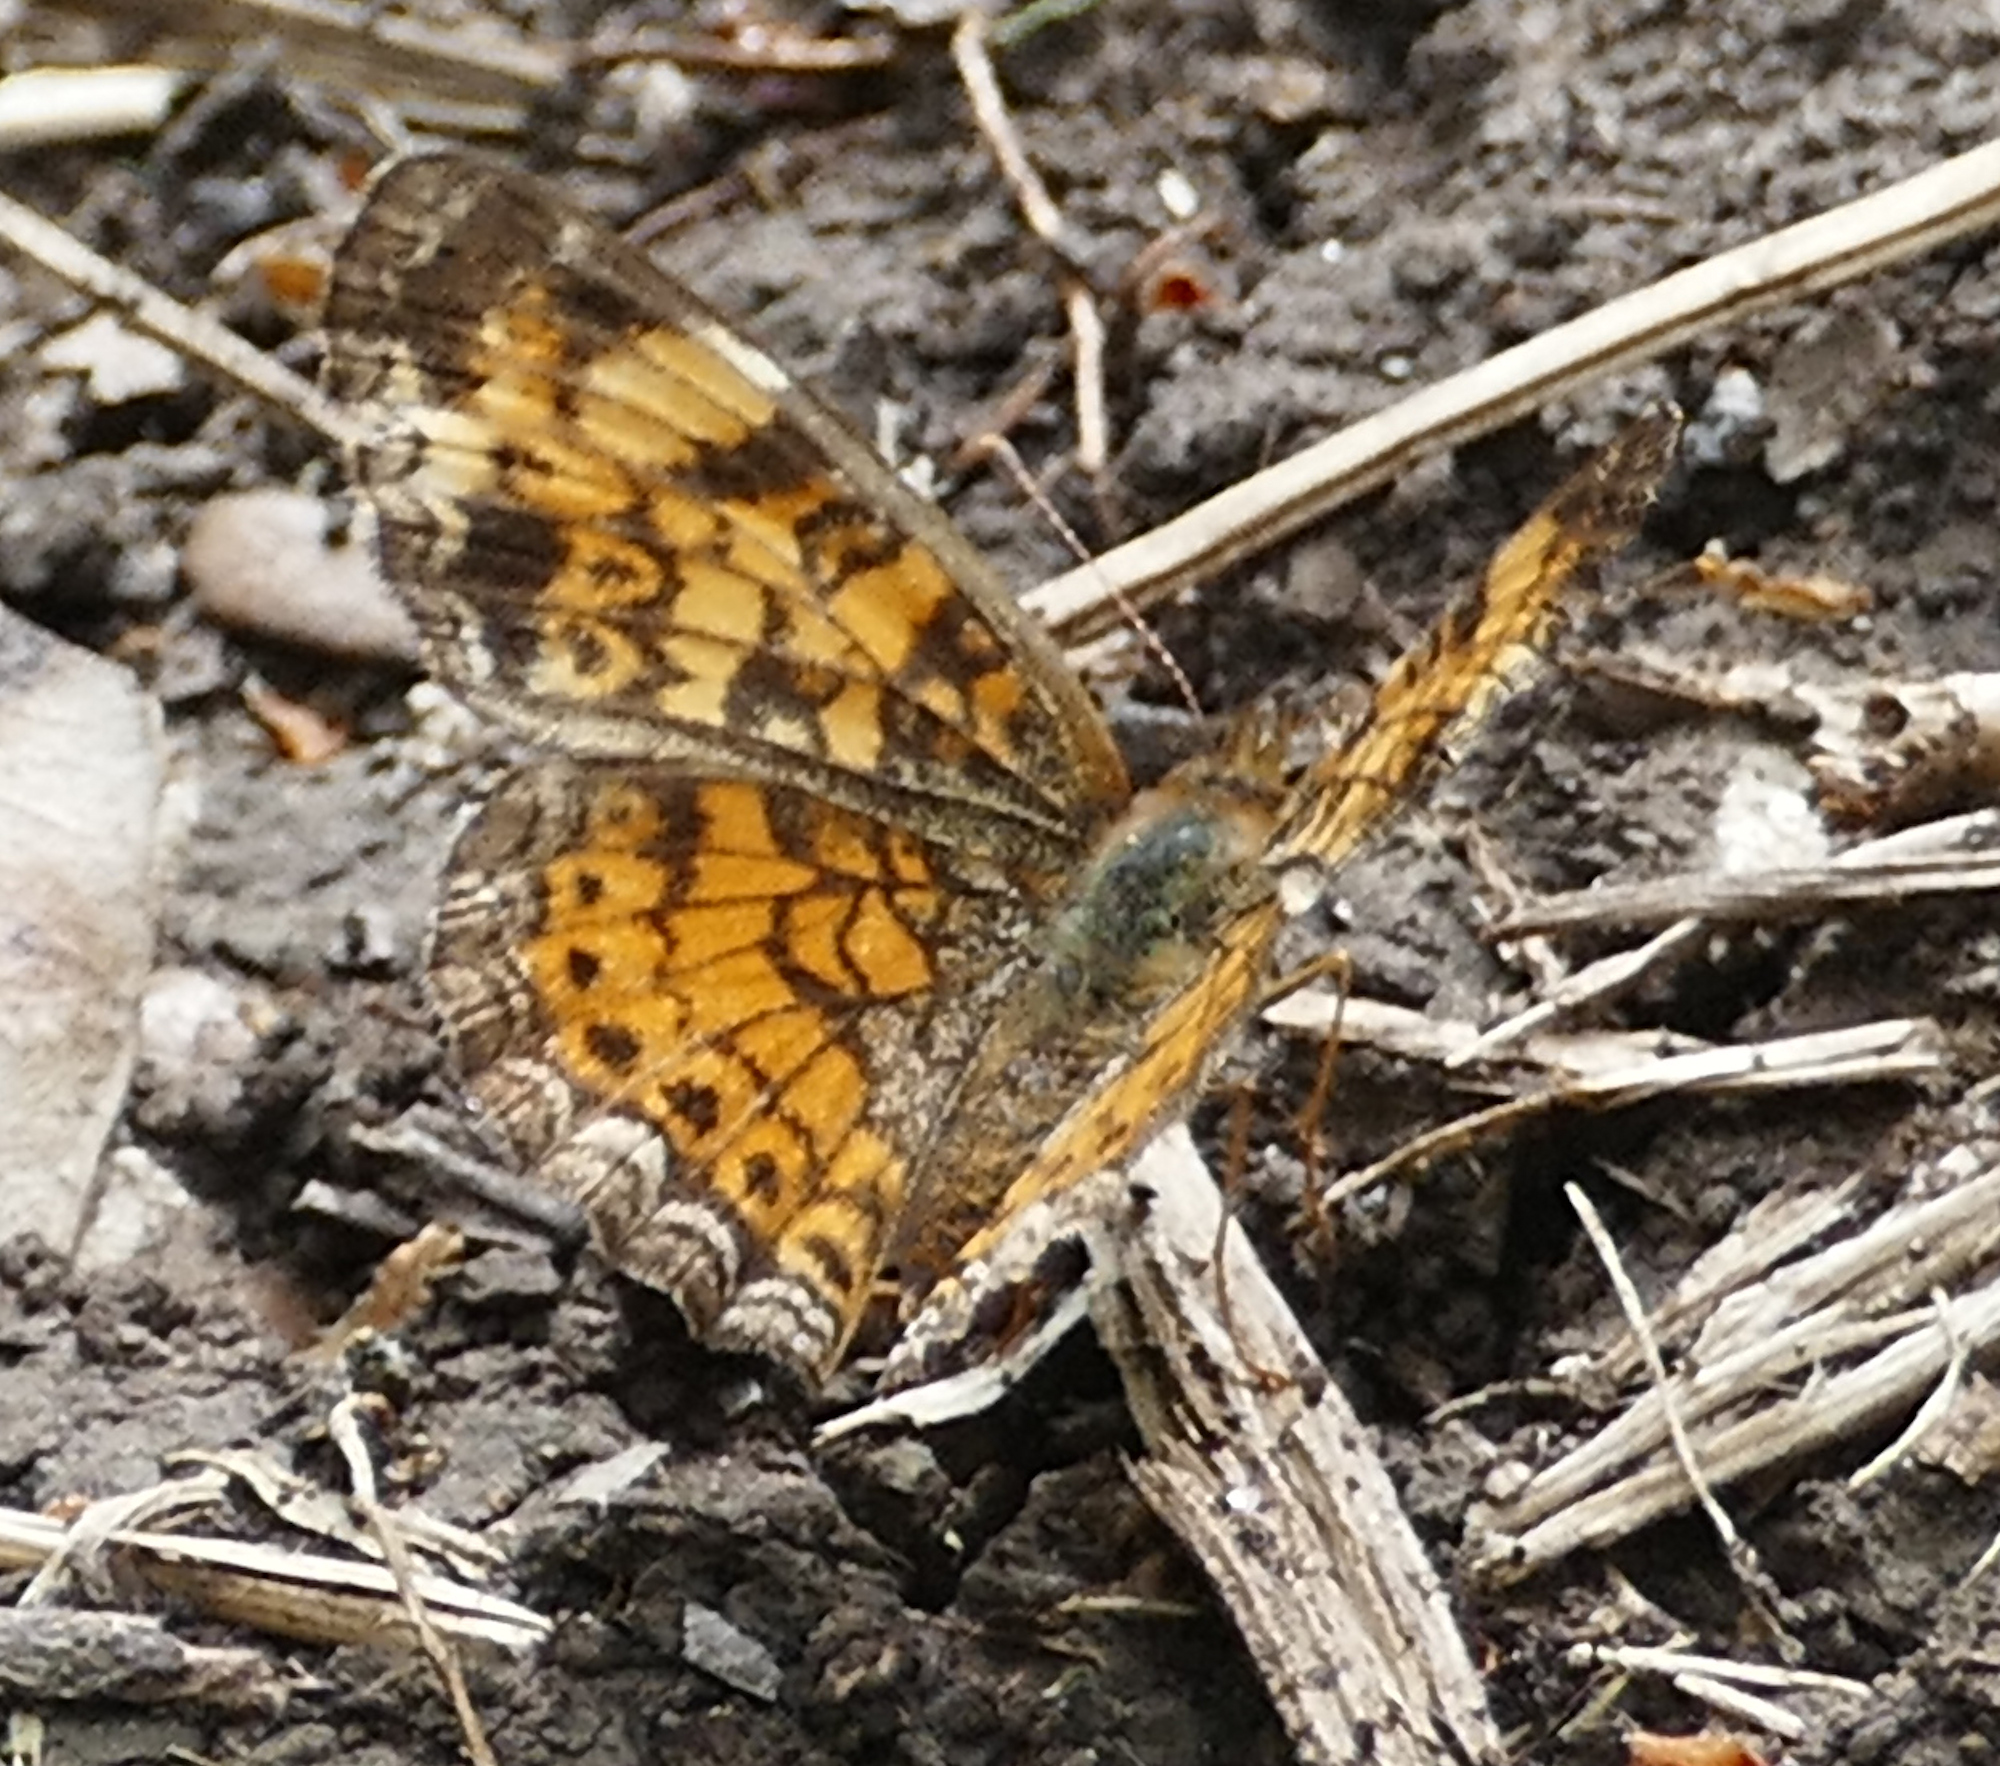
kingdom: Animalia
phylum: Arthropoda
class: Insecta
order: Lepidoptera
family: Nymphalidae
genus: Phyciodes
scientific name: Phyciodes tharos
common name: Pearl crescent
